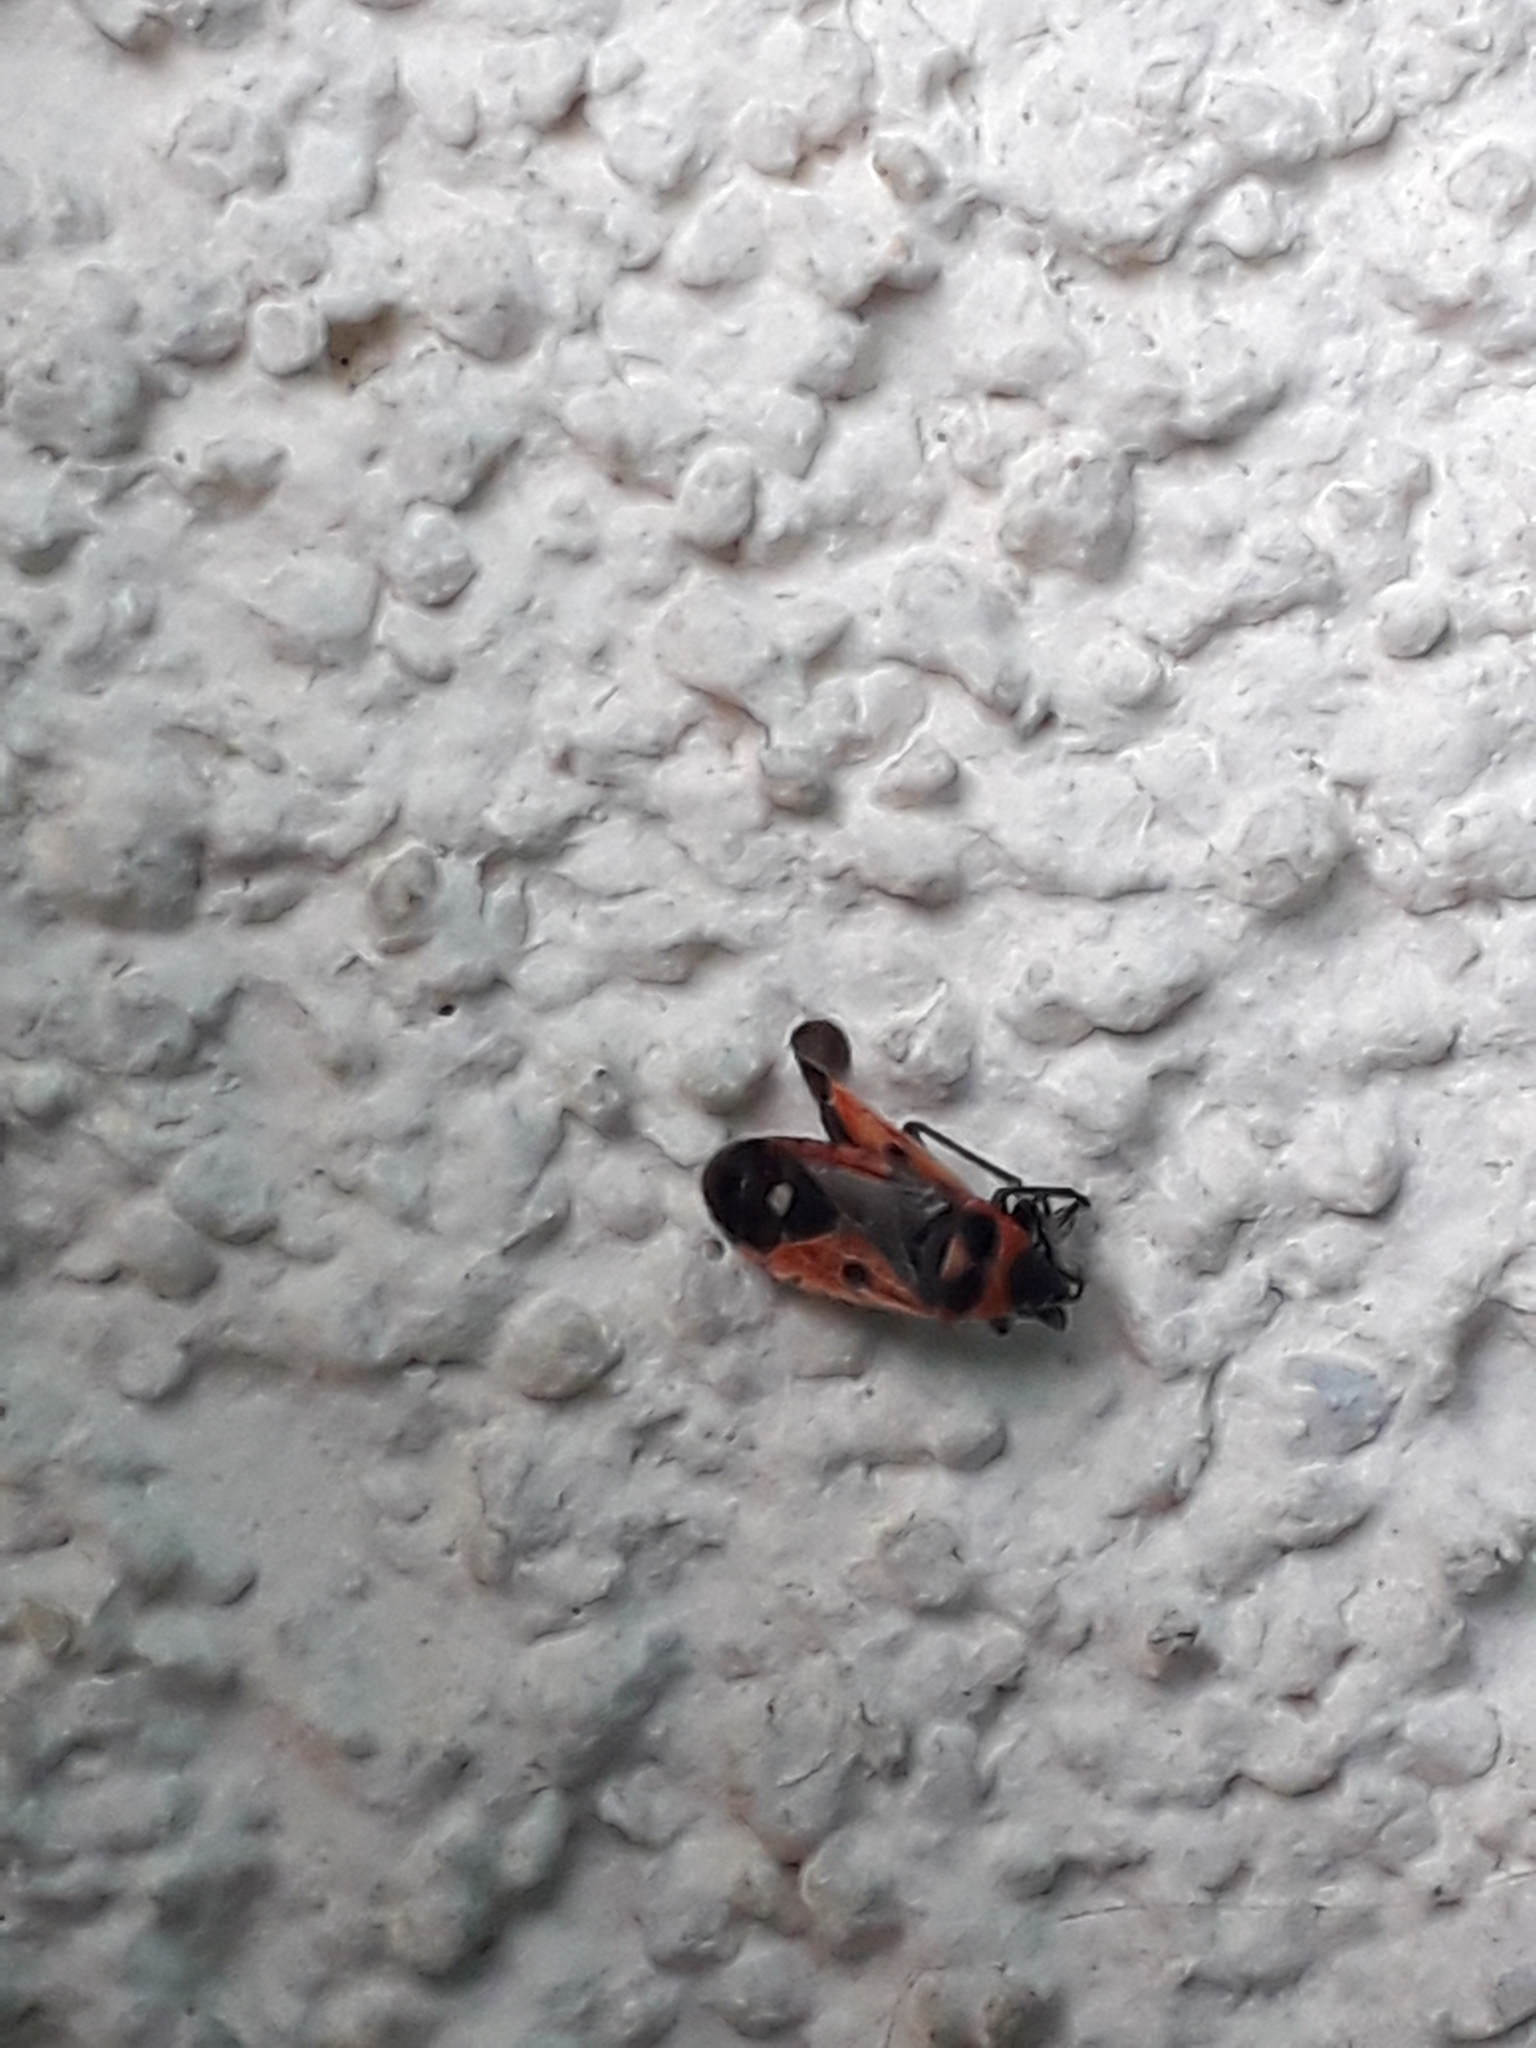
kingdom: Animalia
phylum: Arthropoda
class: Insecta
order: Hemiptera
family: Lygaeidae
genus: Melanocoryphus
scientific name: Melanocoryphus albomaculatus
